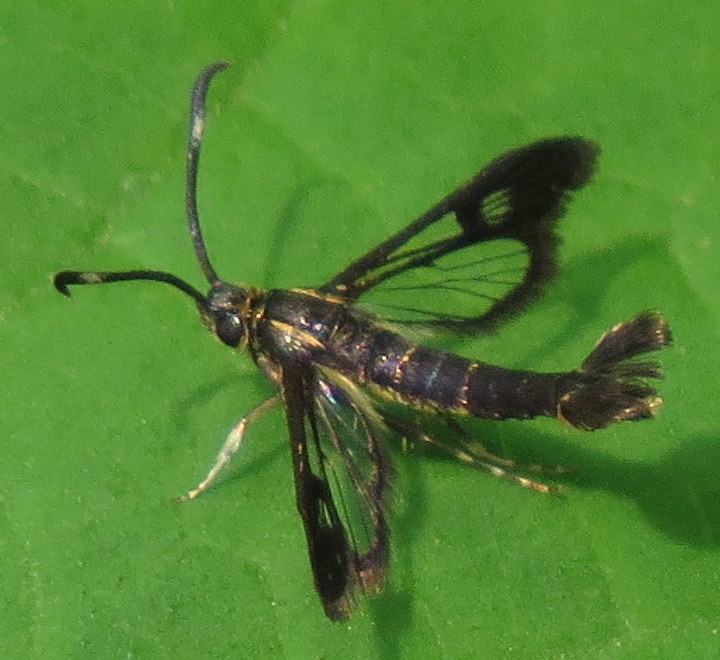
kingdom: Animalia
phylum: Arthropoda
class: Insecta
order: Lepidoptera
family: Sesiidae
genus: Carmenta
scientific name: Carmenta ithacae
